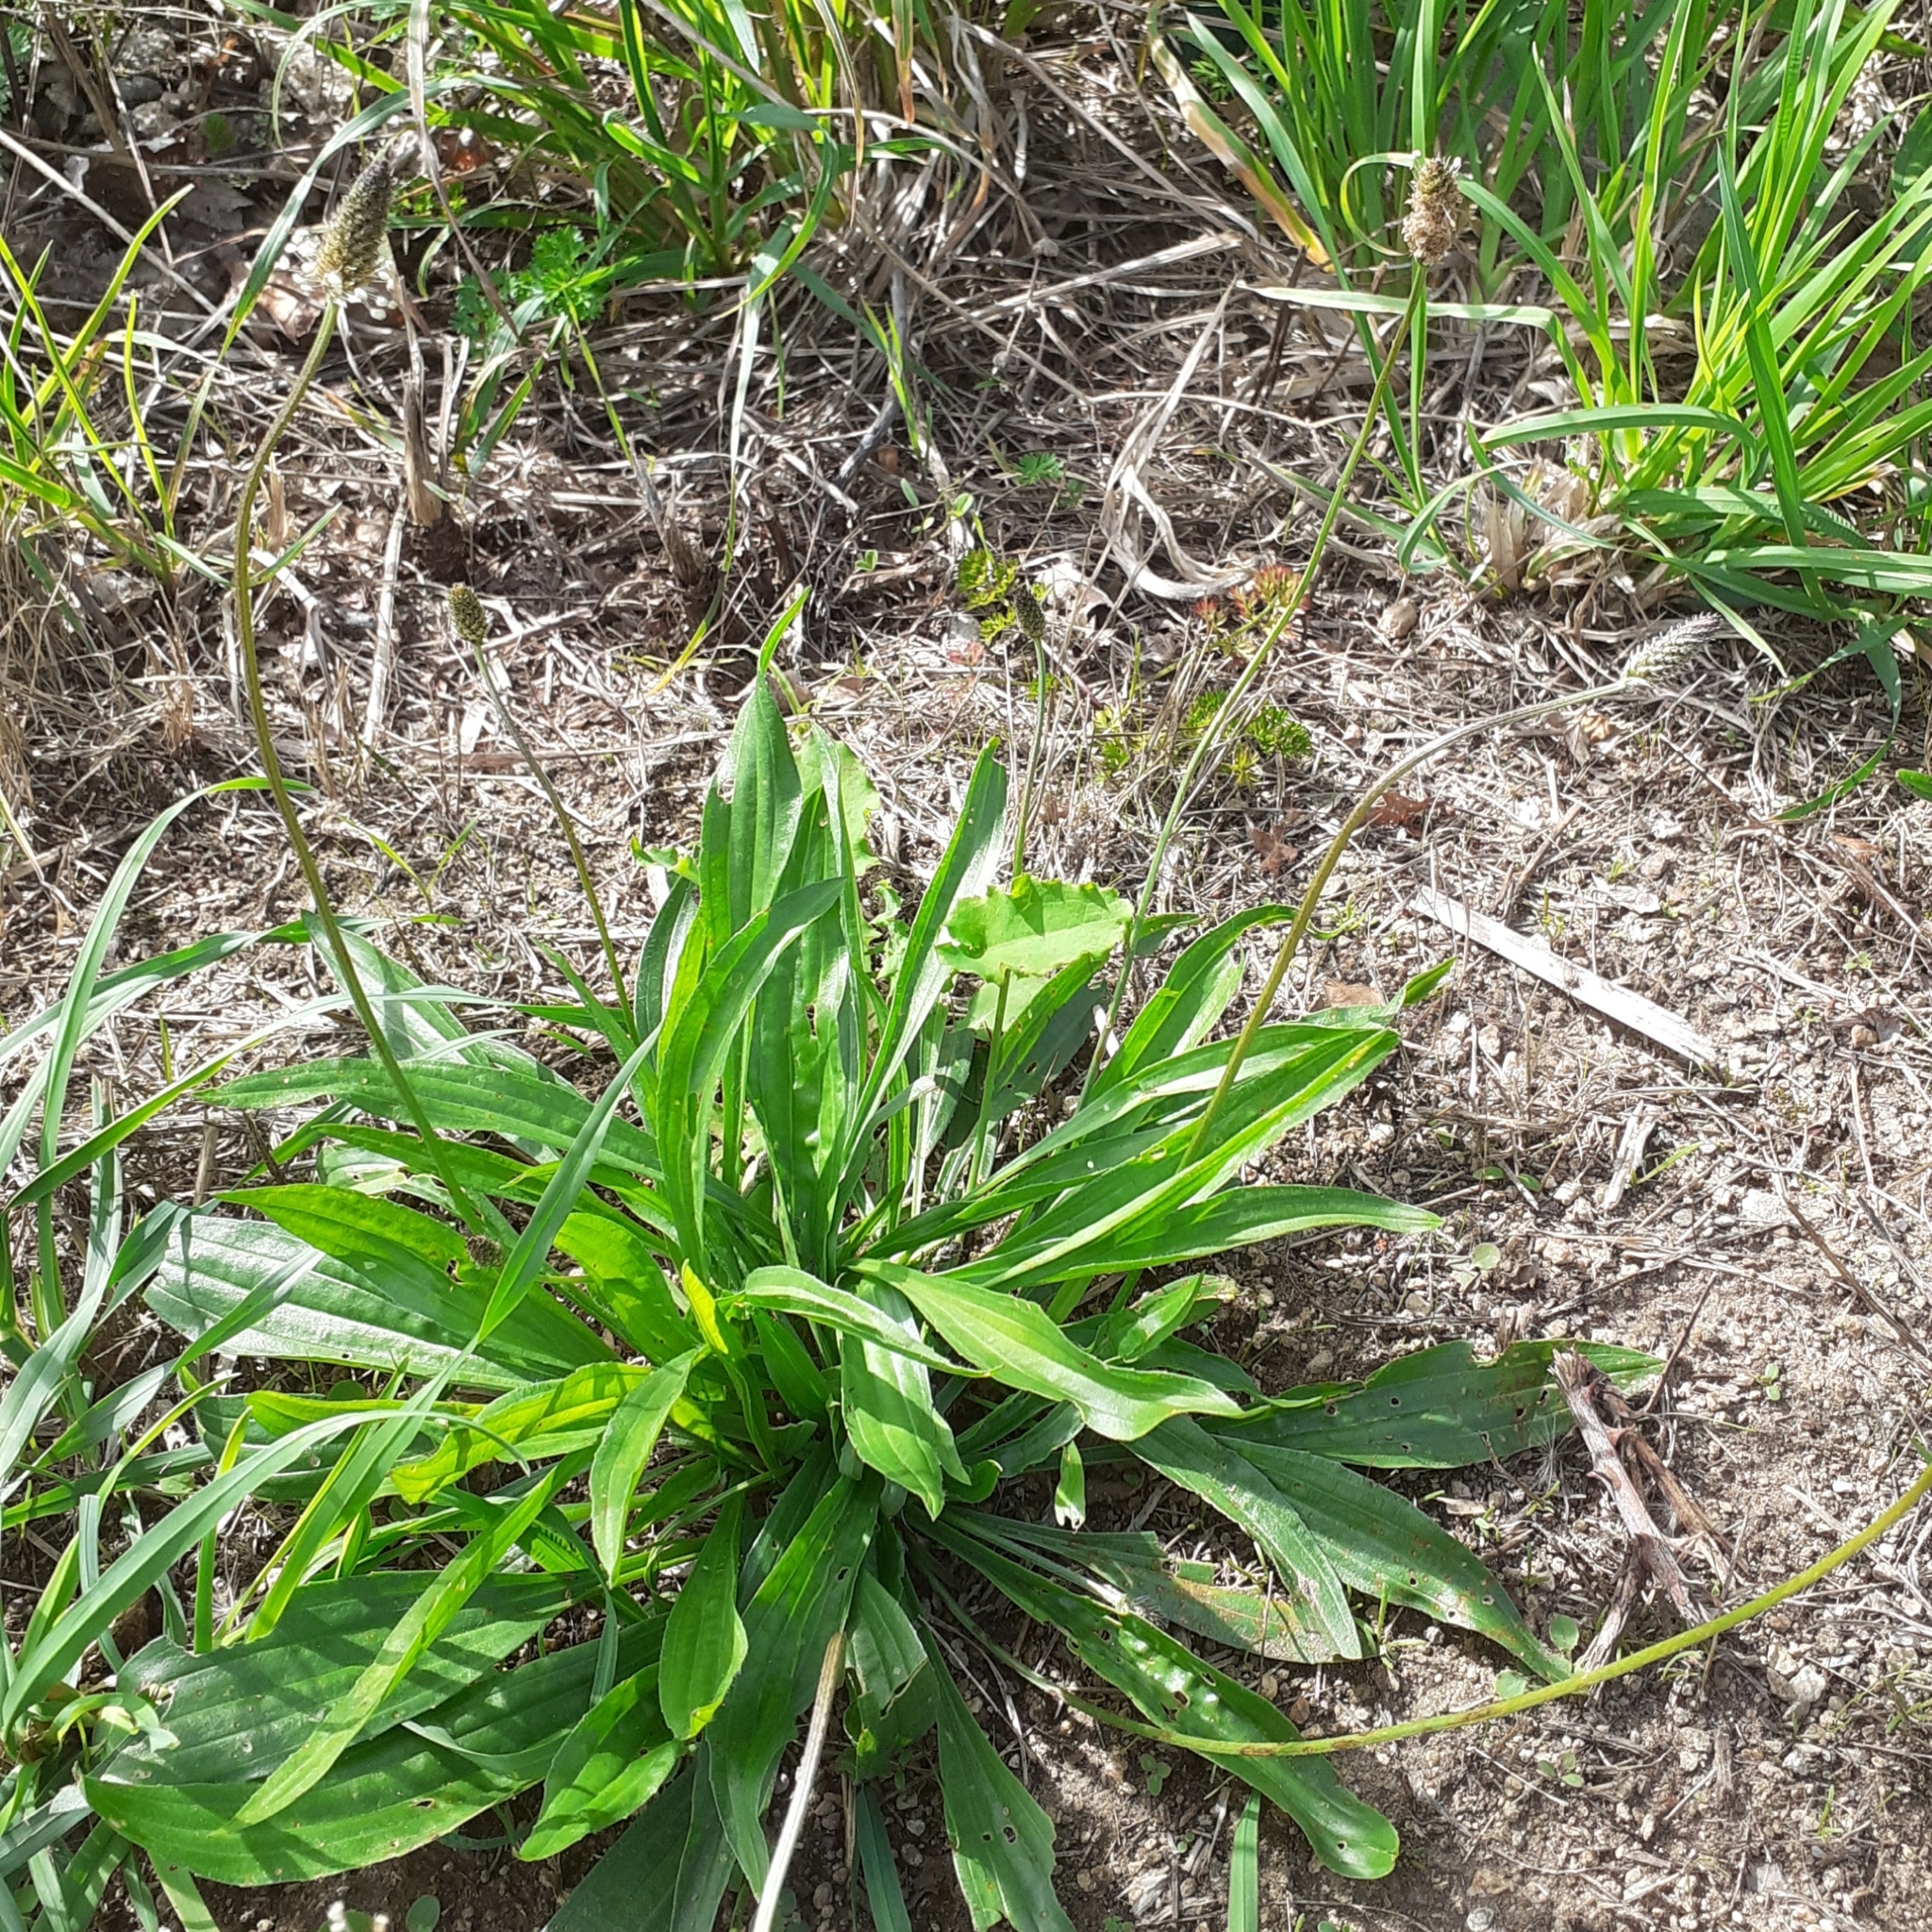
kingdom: Plantae
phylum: Tracheophyta
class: Magnoliopsida
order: Lamiales
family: Plantaginaceae
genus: Plantago
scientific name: Plantago lanceolata
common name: Ribwort plantain
